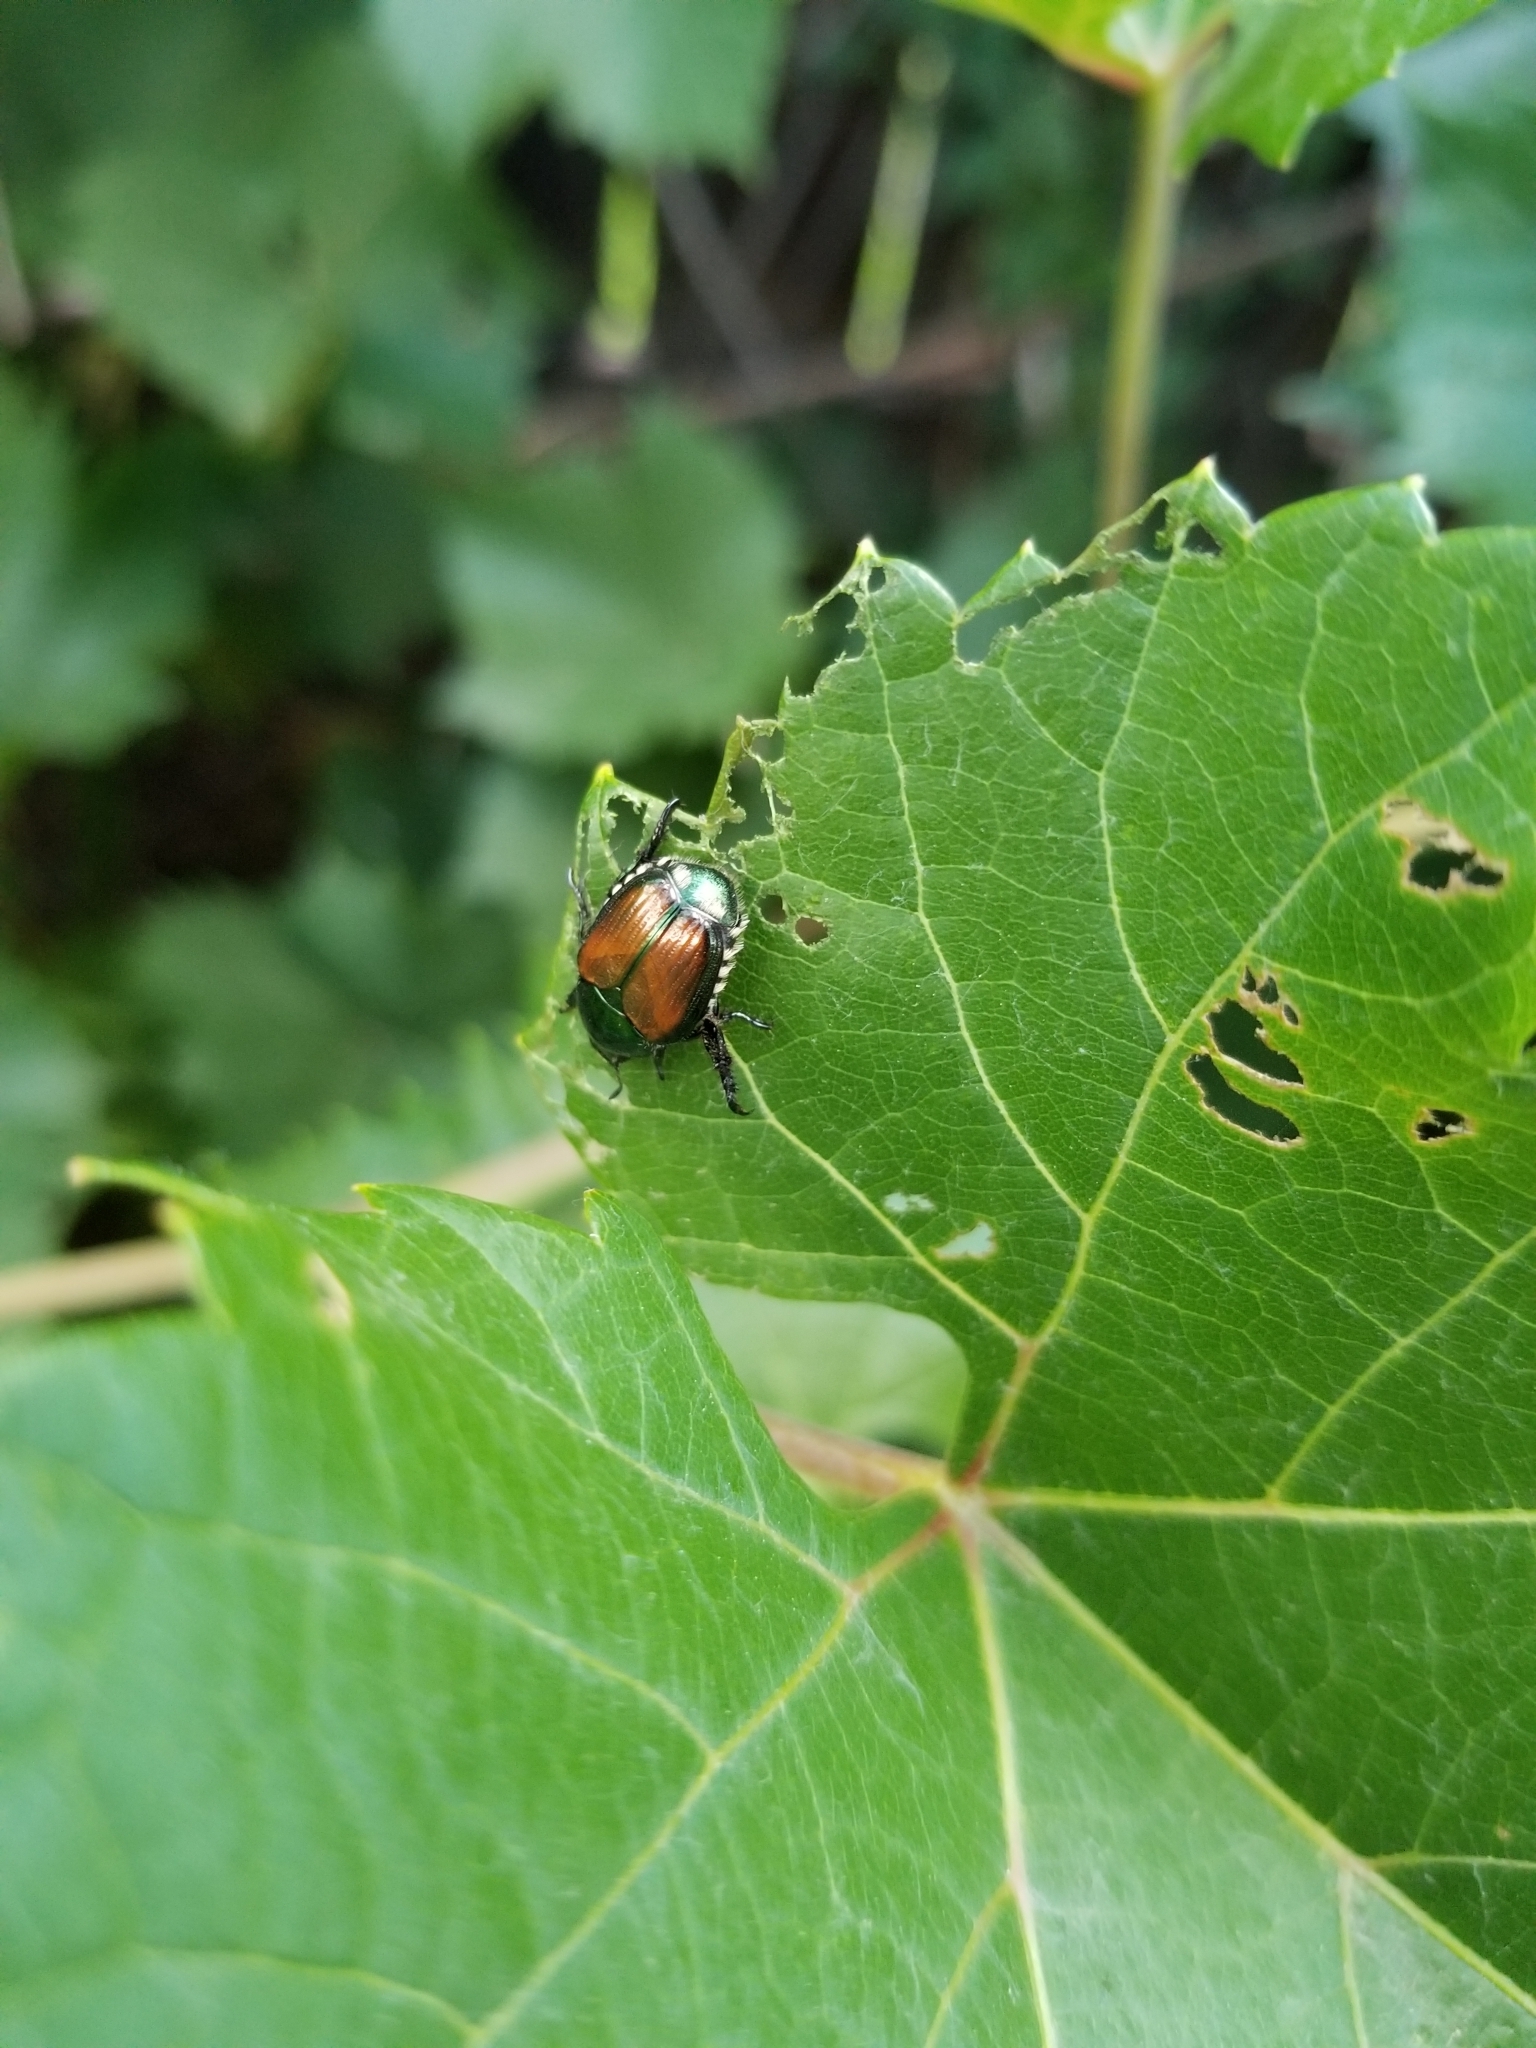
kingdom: Animalia
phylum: Arthropoda
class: Insecta
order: Coleoptera
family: Scarabaeidae
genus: Popillia
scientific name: Popillia japonica
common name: Japanese beetle
